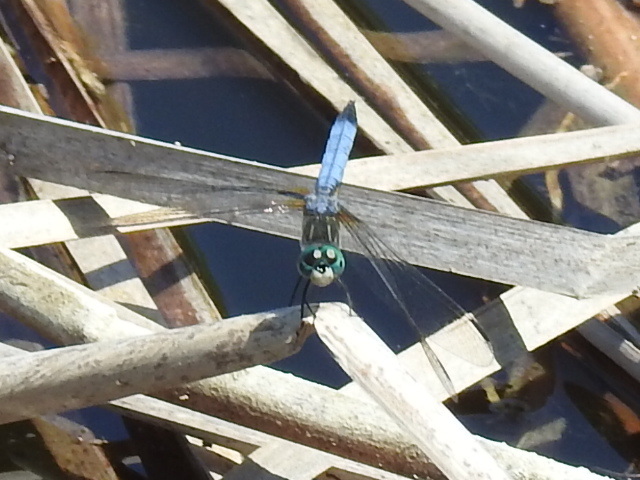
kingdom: Animalia
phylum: Arthropoda
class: Insecta
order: Odonata
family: Libellulidae
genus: Pachydiplax
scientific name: Pachydiplax longipennis
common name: Blue dasher
